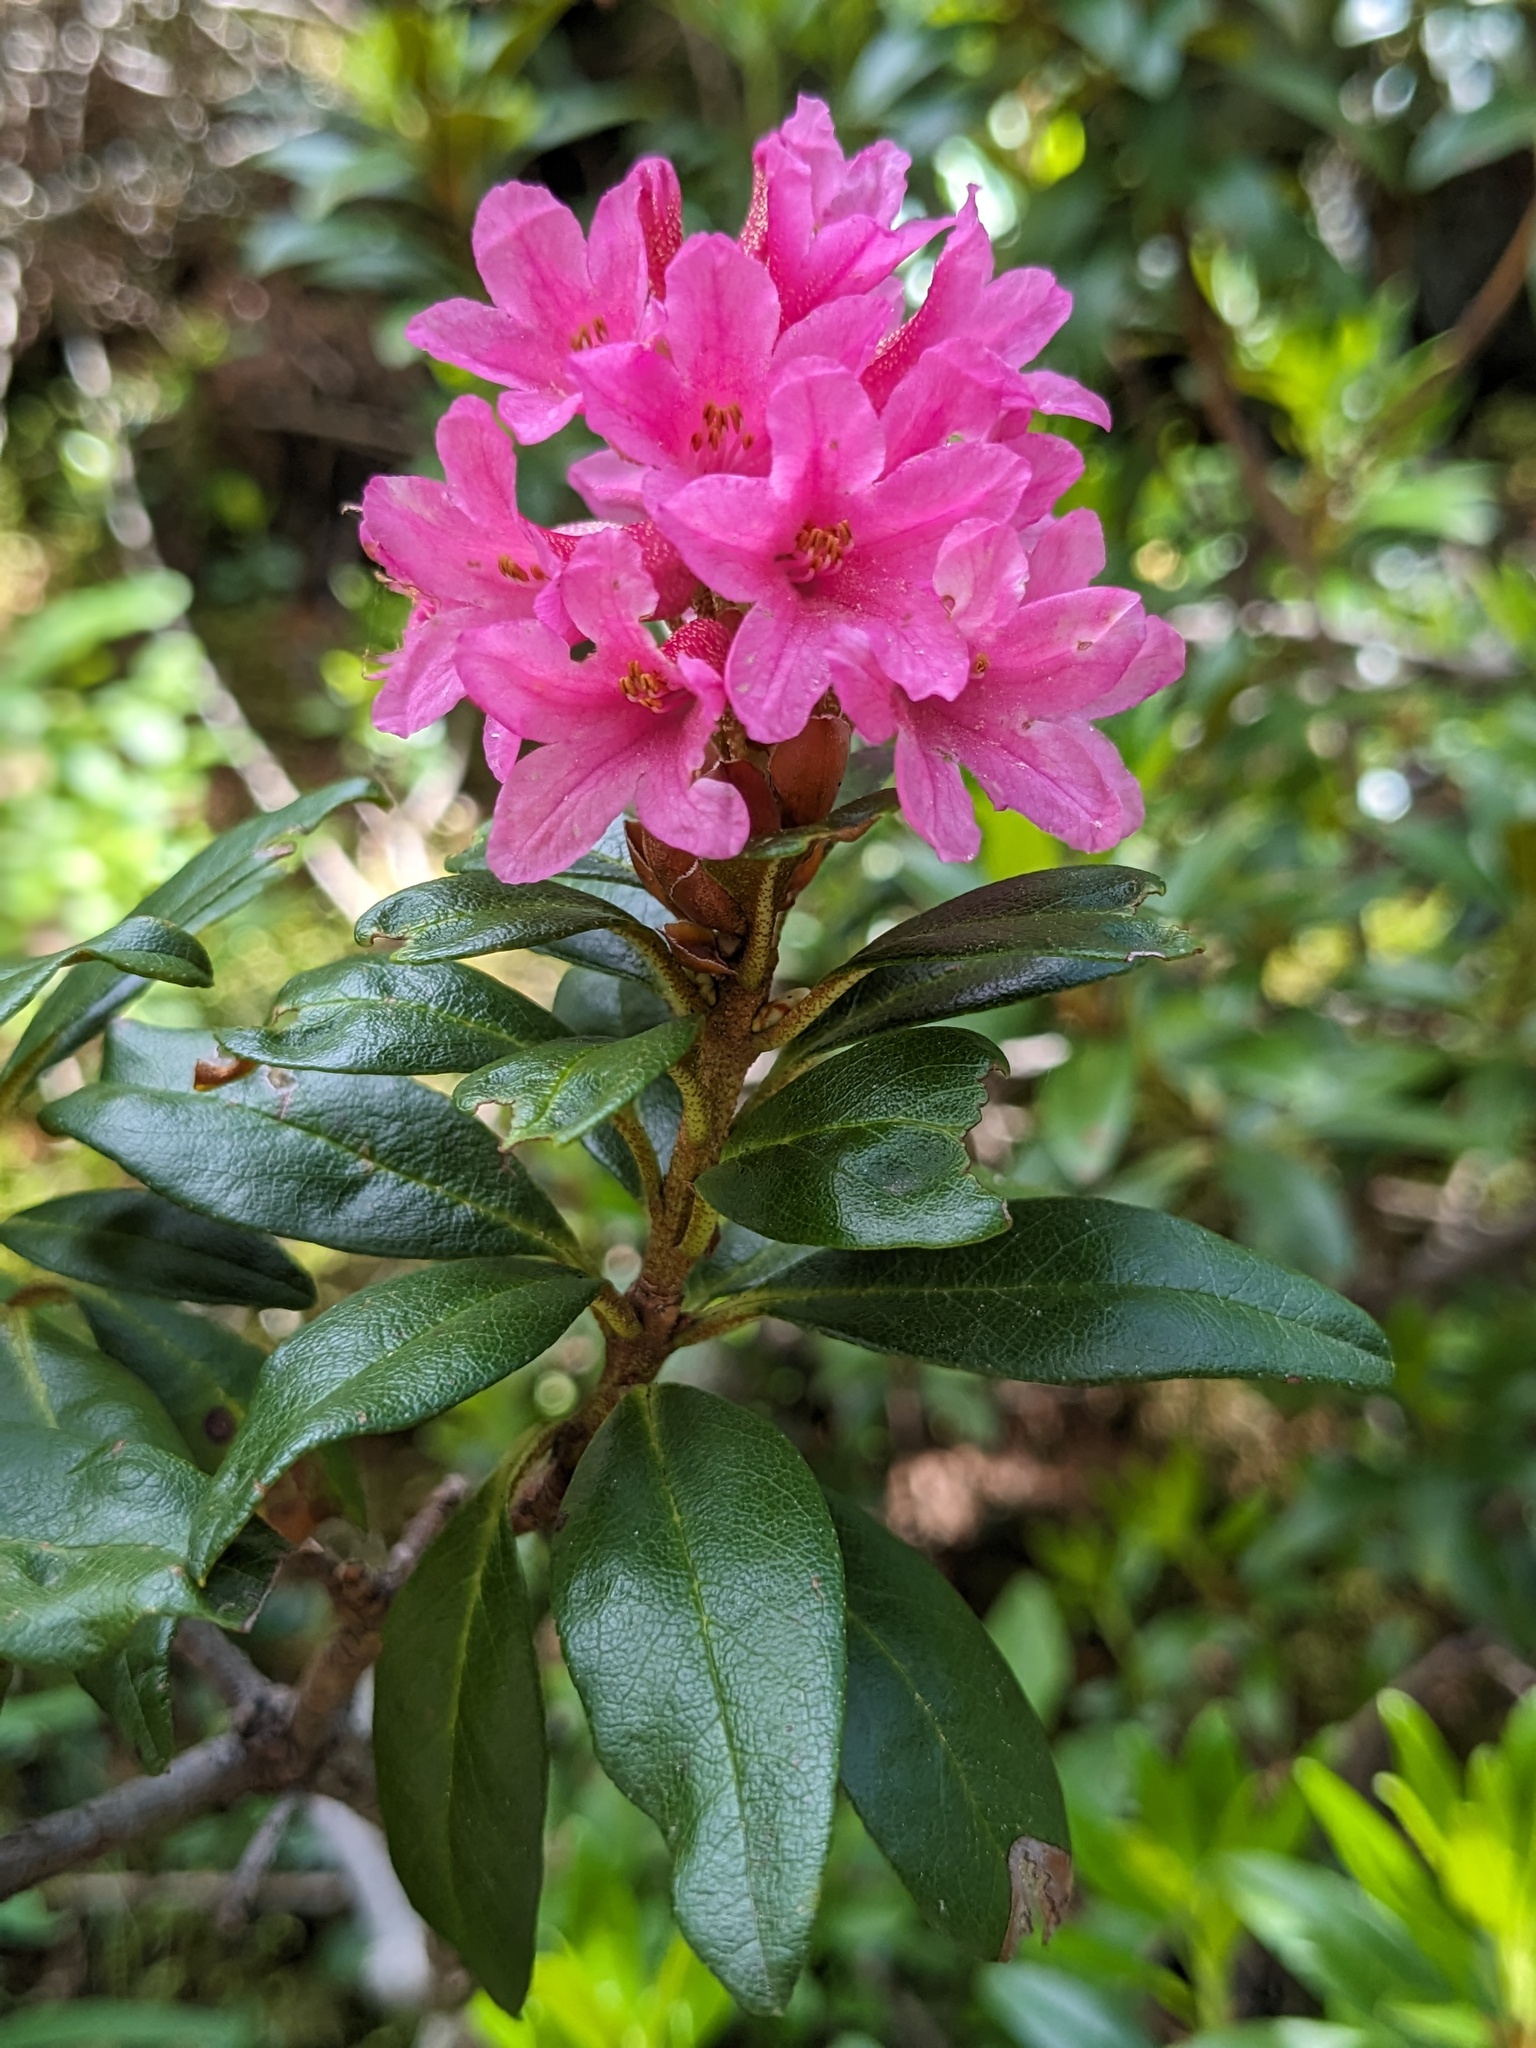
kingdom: Plantae
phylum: Tracheophyta
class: Magnoliopsida
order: Ericales
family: Ericaceae
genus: Rhododendron
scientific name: Rhododendron ferrugineum
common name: Alpenrose
